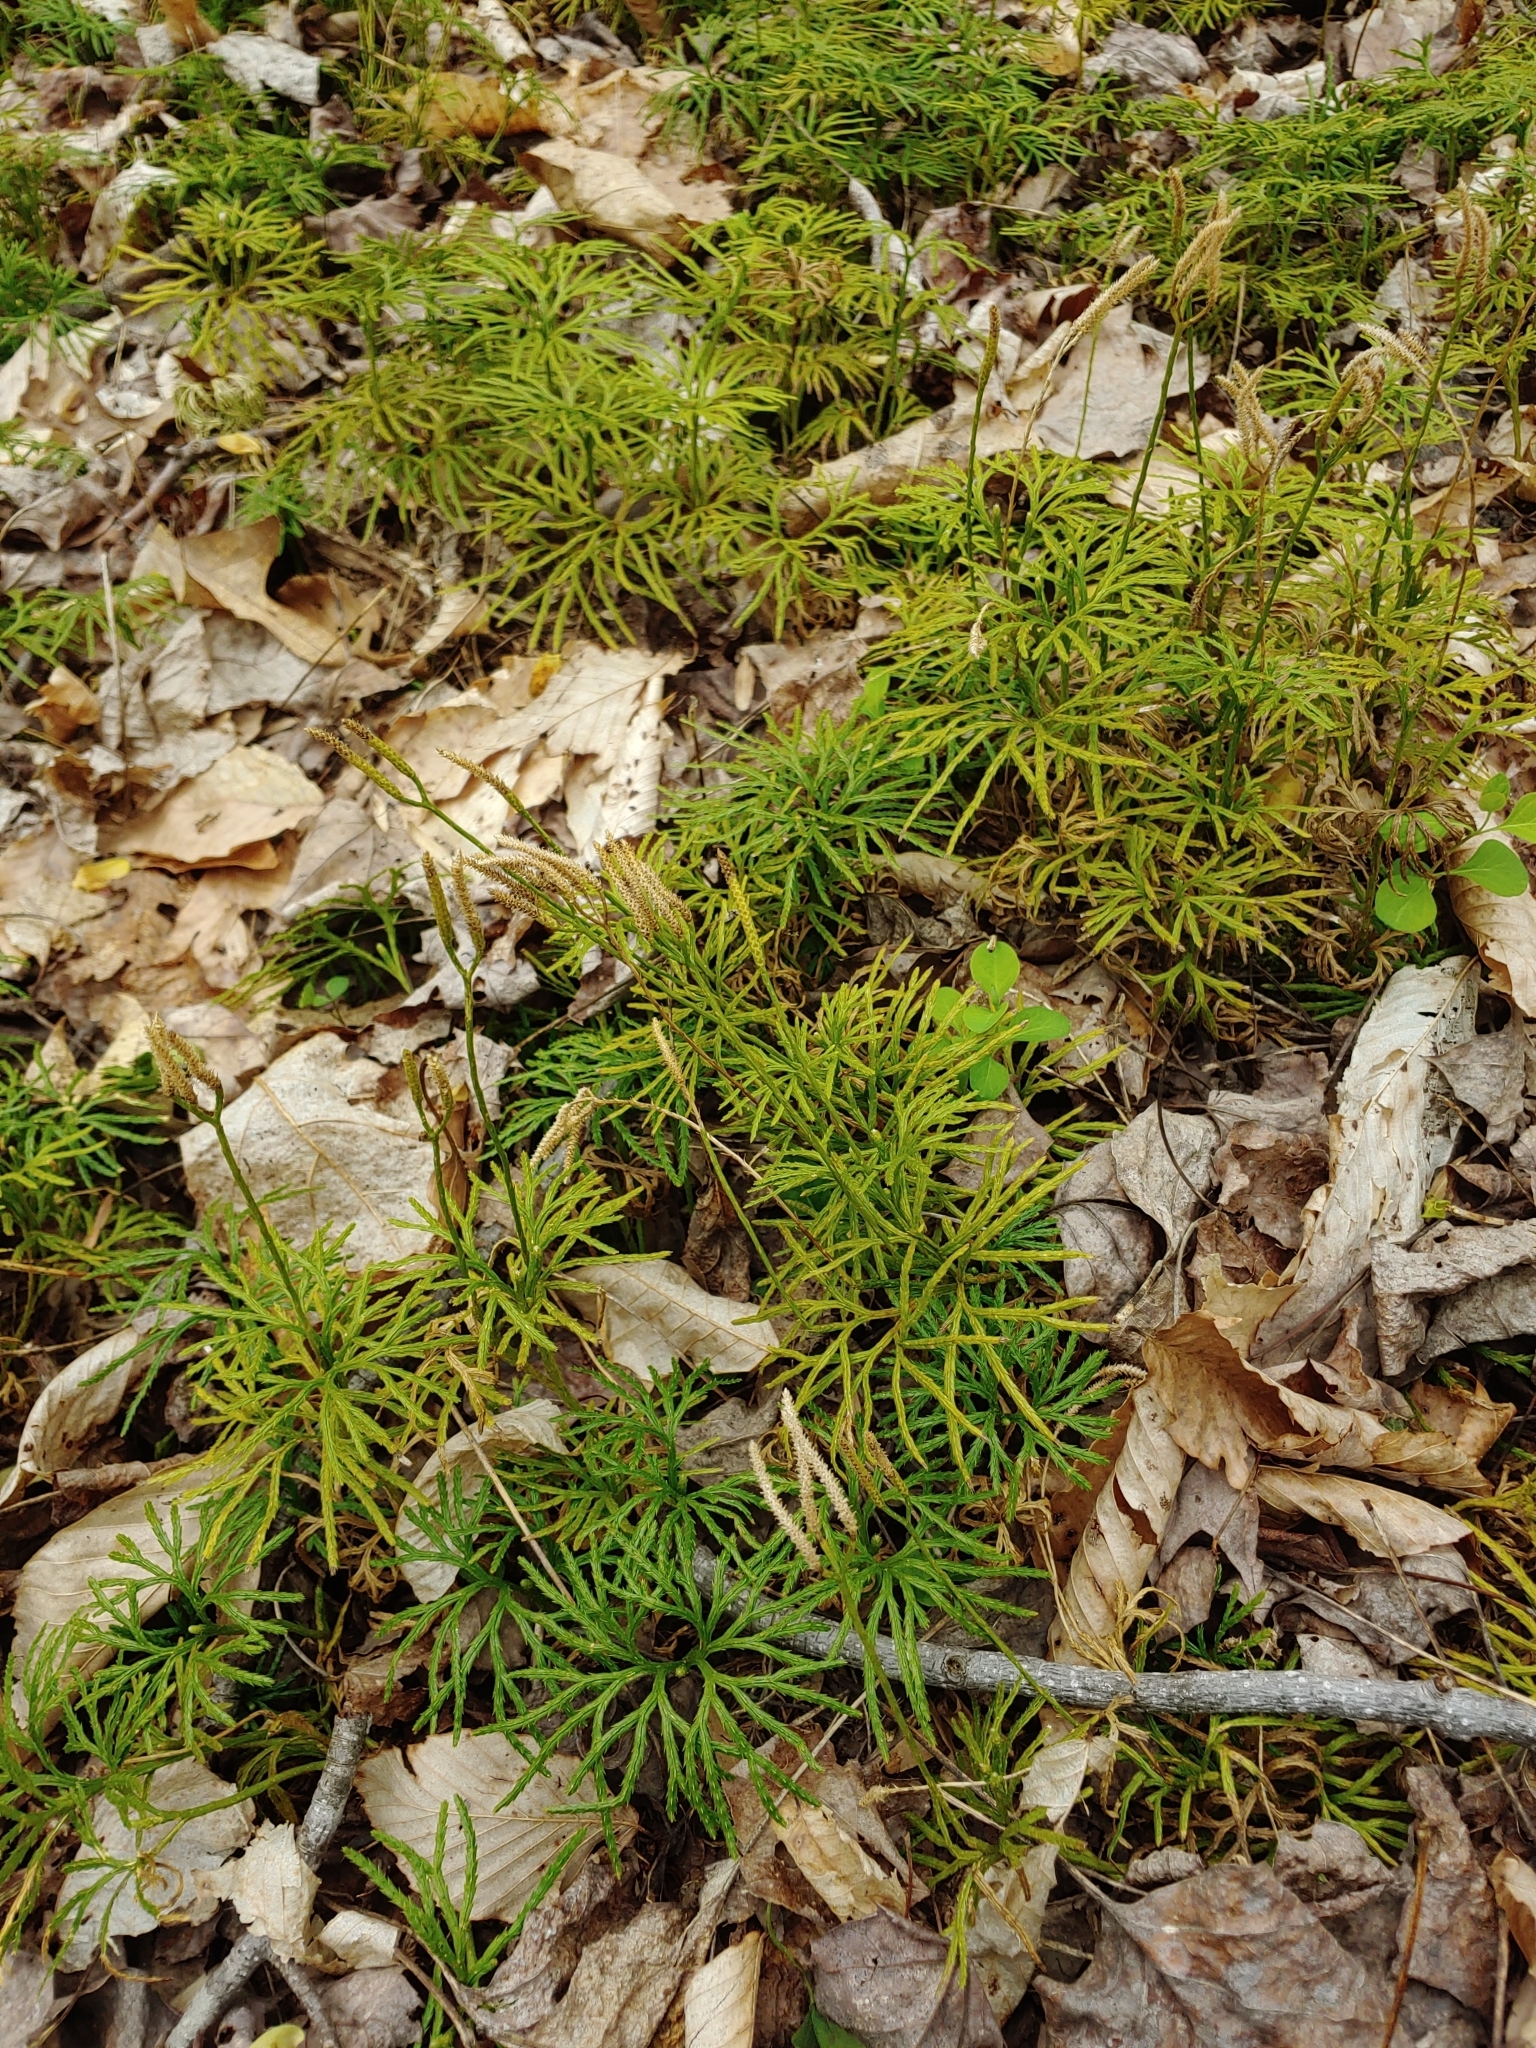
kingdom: Plantae
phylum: Tracheophyta
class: Lycopodiopsida
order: Lycopodiales
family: Lycopodiaceae
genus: Diphasiastrum
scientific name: Diphasiastrum digitatum
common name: Southern running-pine
